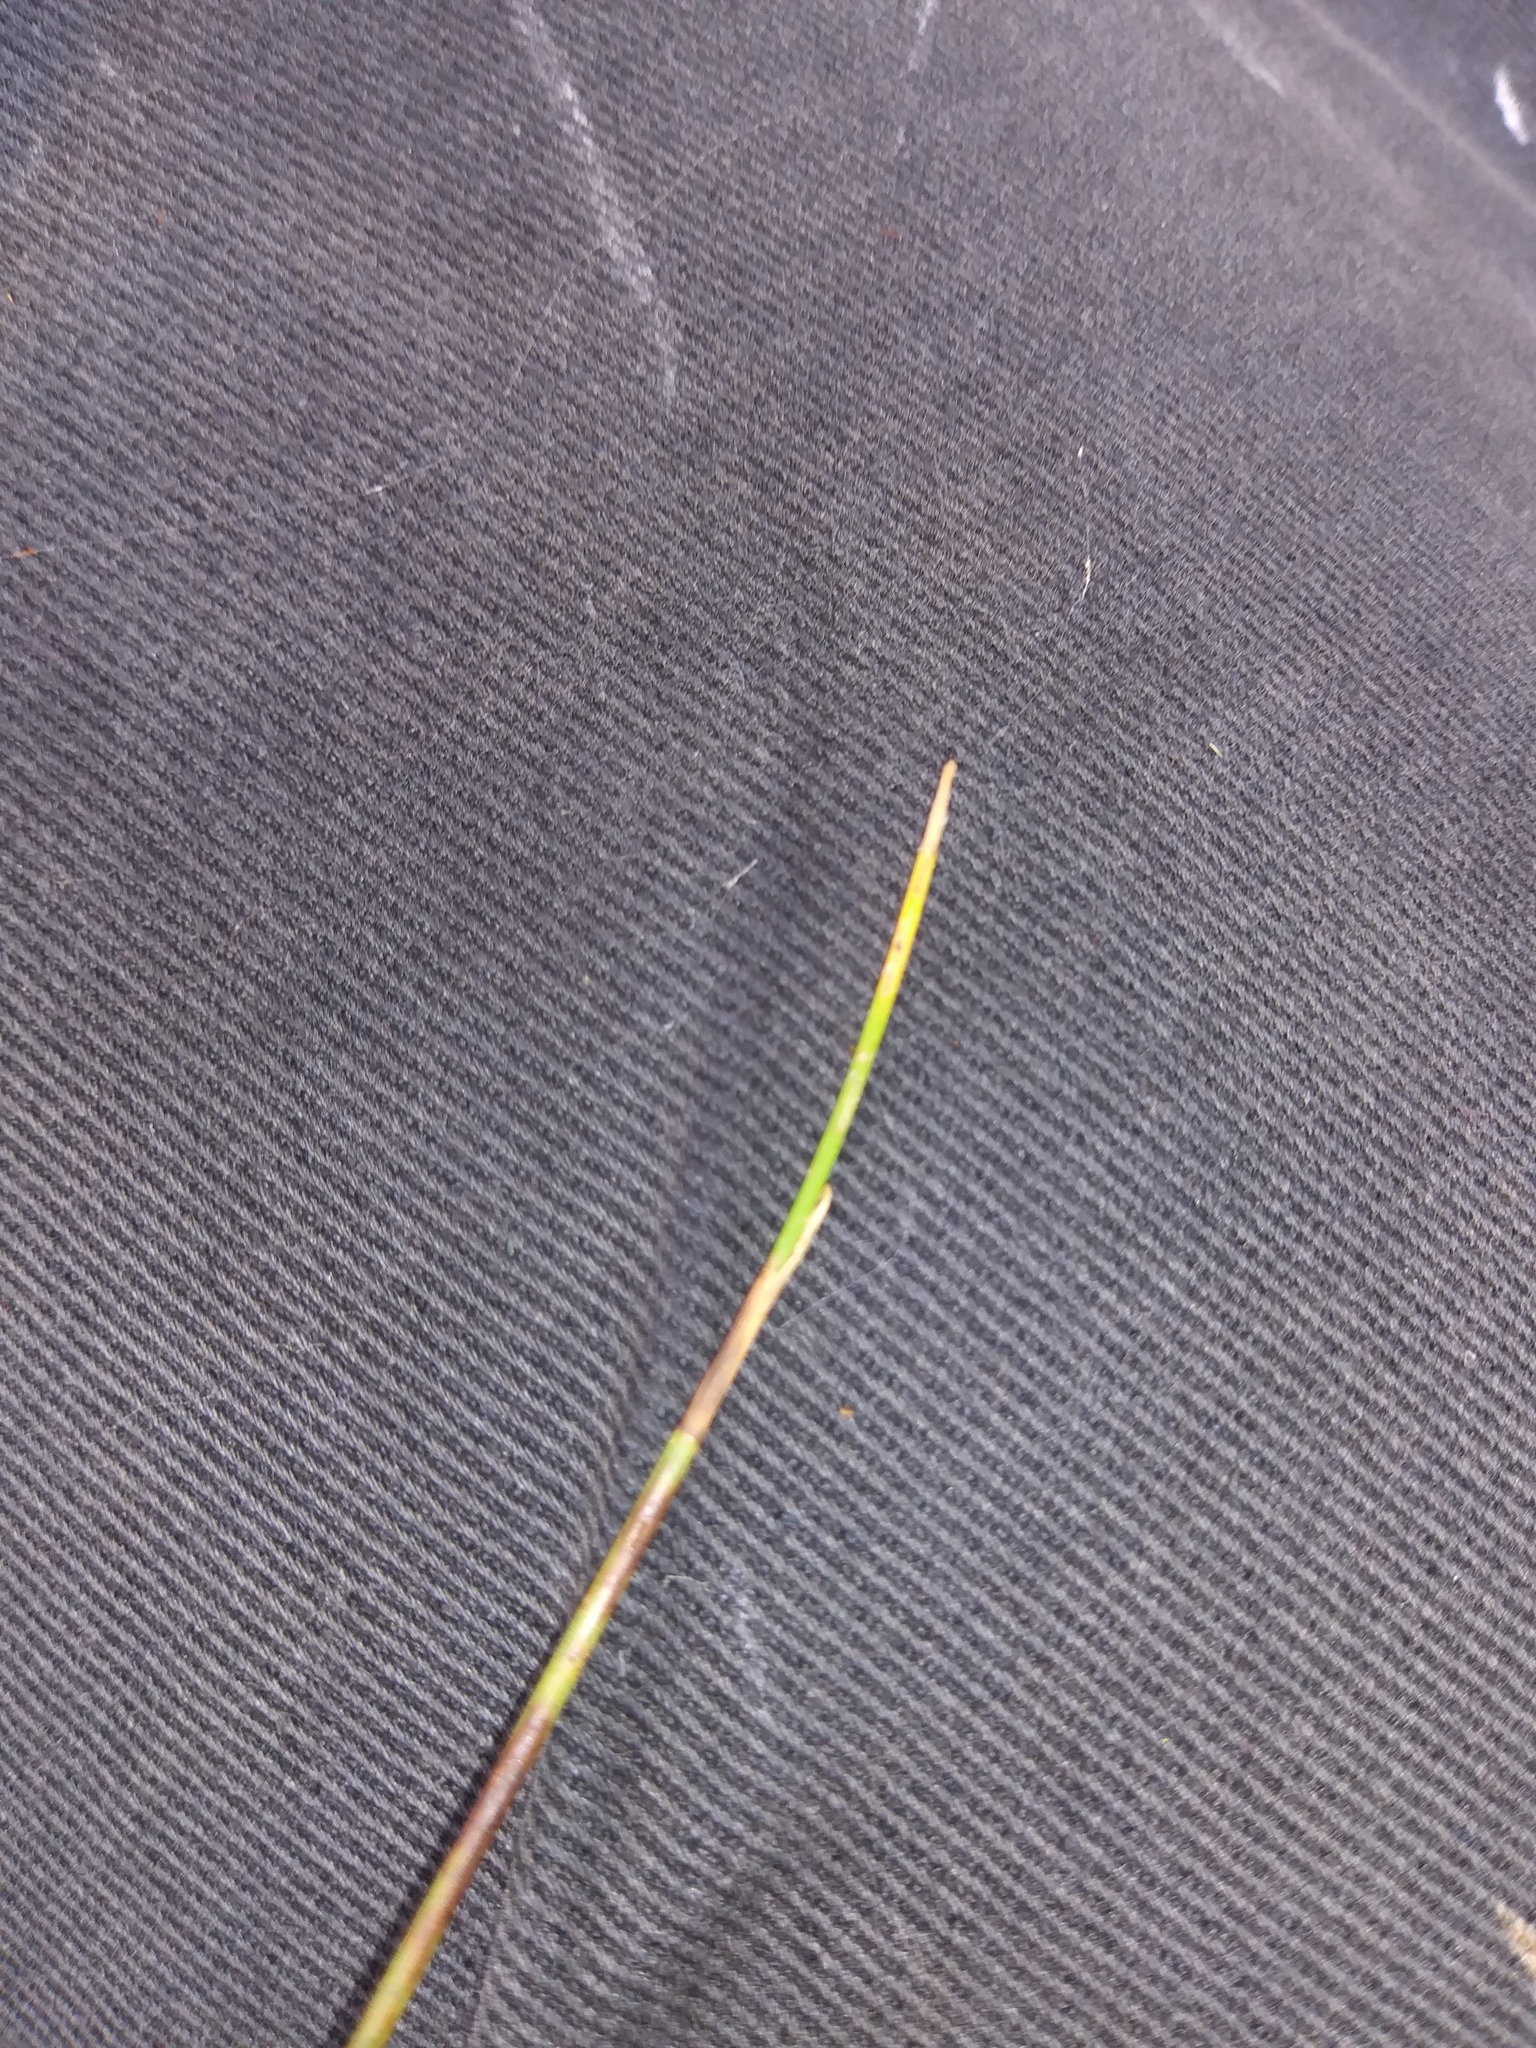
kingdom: Plantae
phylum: Tracheophyta
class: Liliopsida
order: Poales
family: Cyperaceae
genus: Fuirena
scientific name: Fuirena scirpoidea
